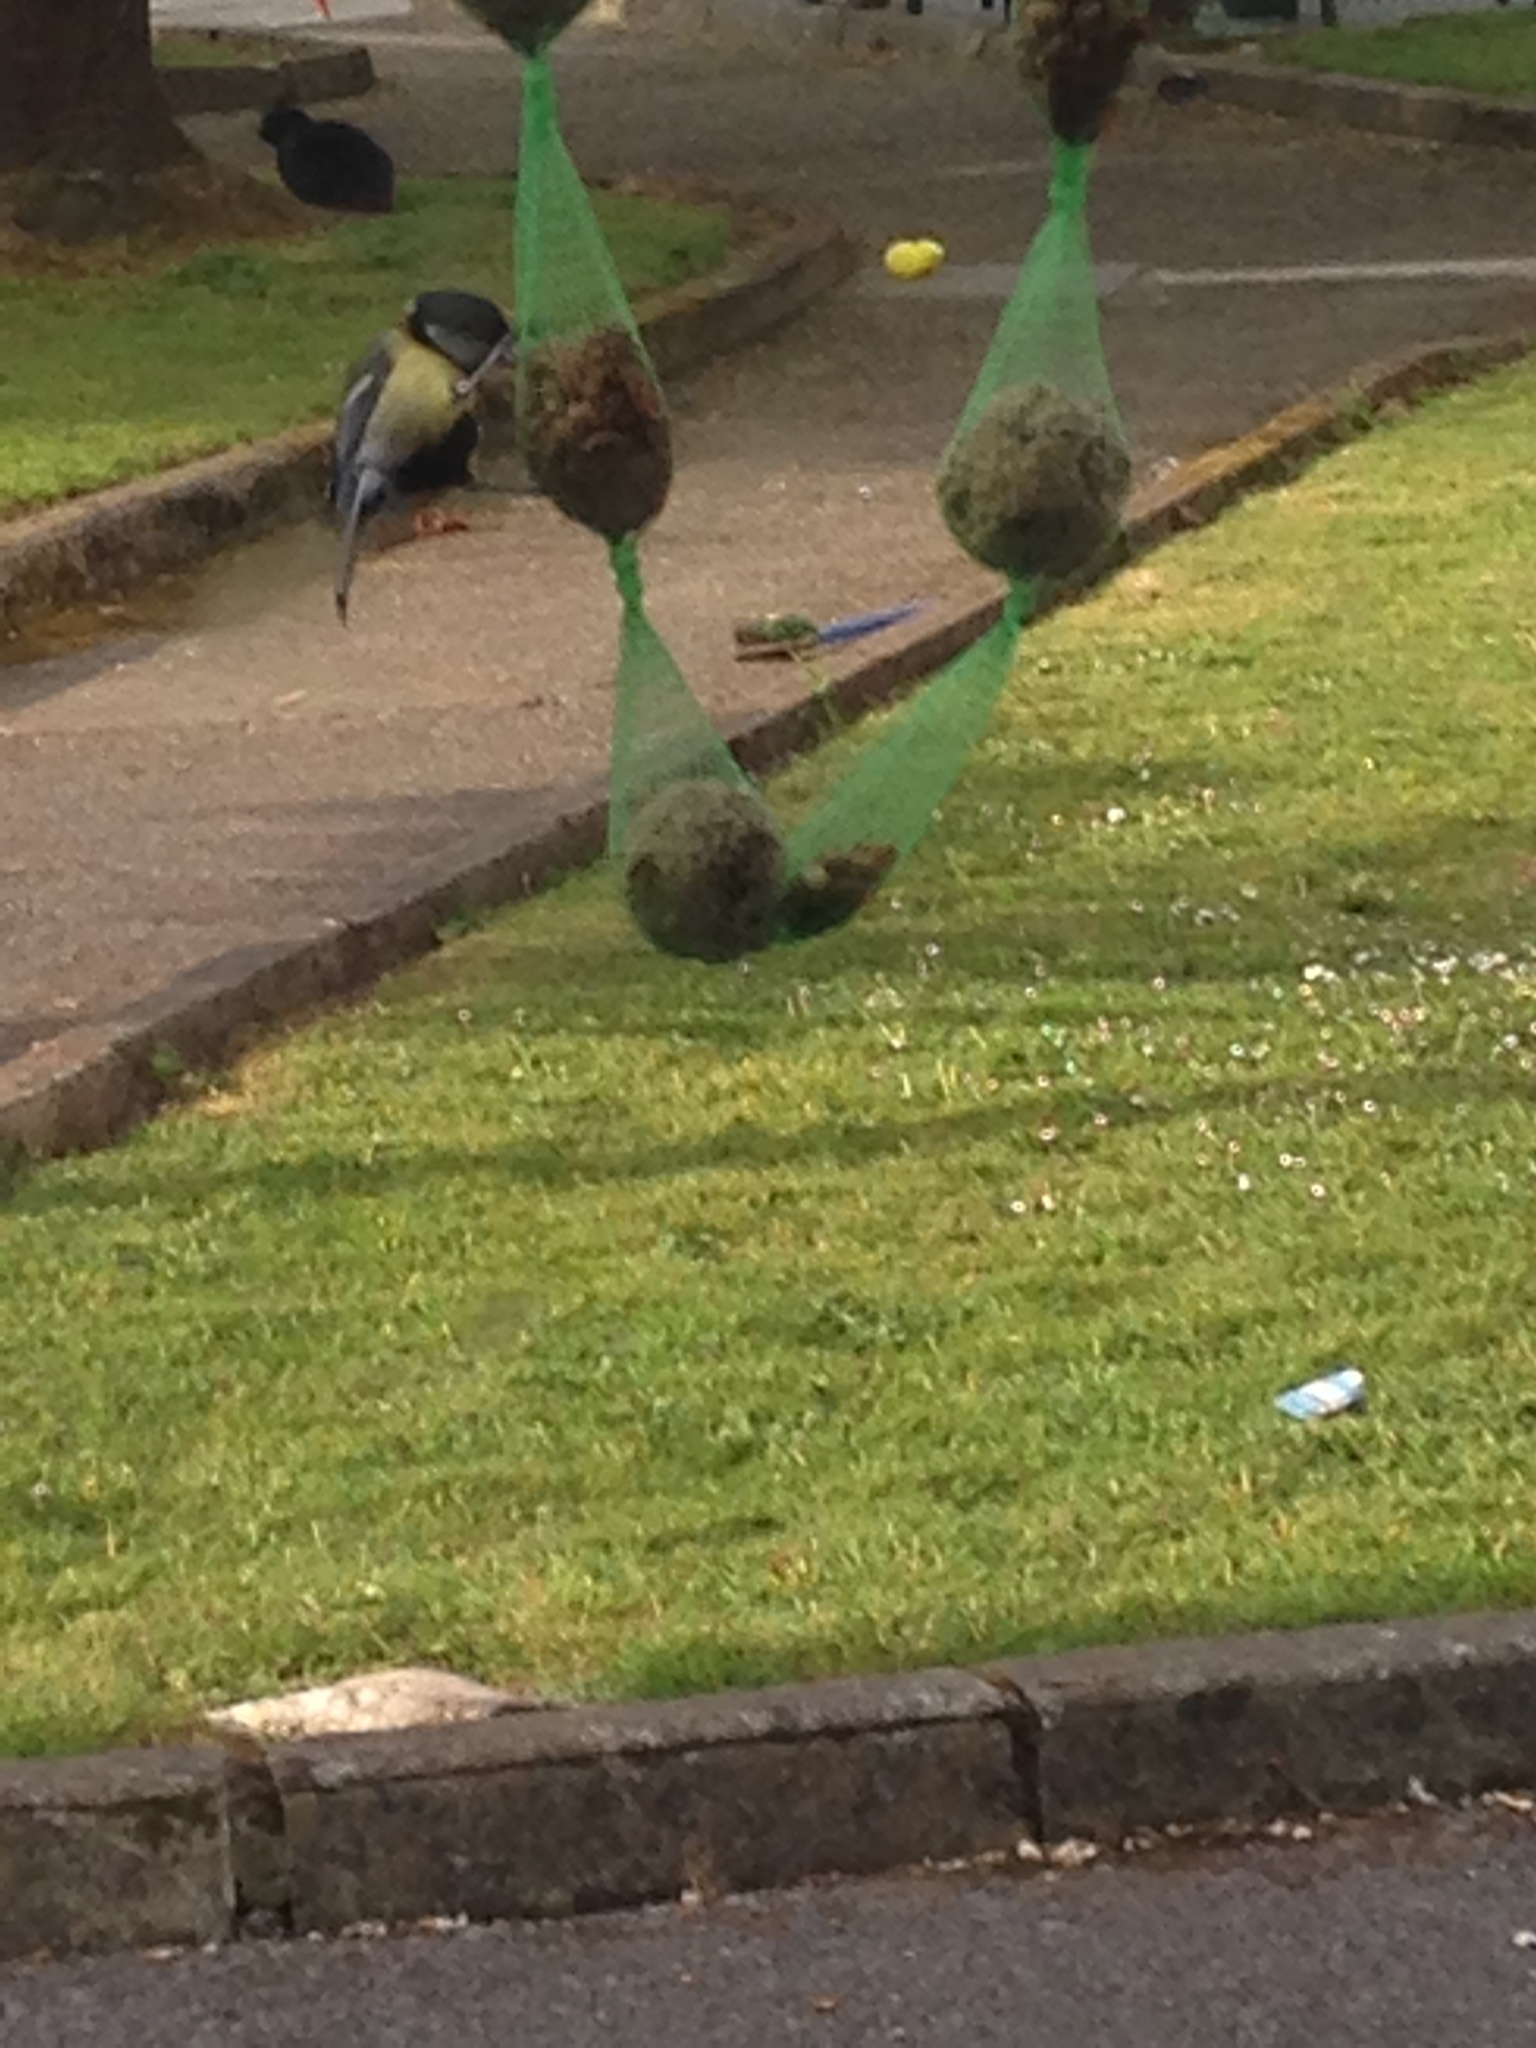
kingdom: Animalia
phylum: Chordata
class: Aves
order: Passeriformes
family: Paridae
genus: Parus
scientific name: Parus major
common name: Great tit
